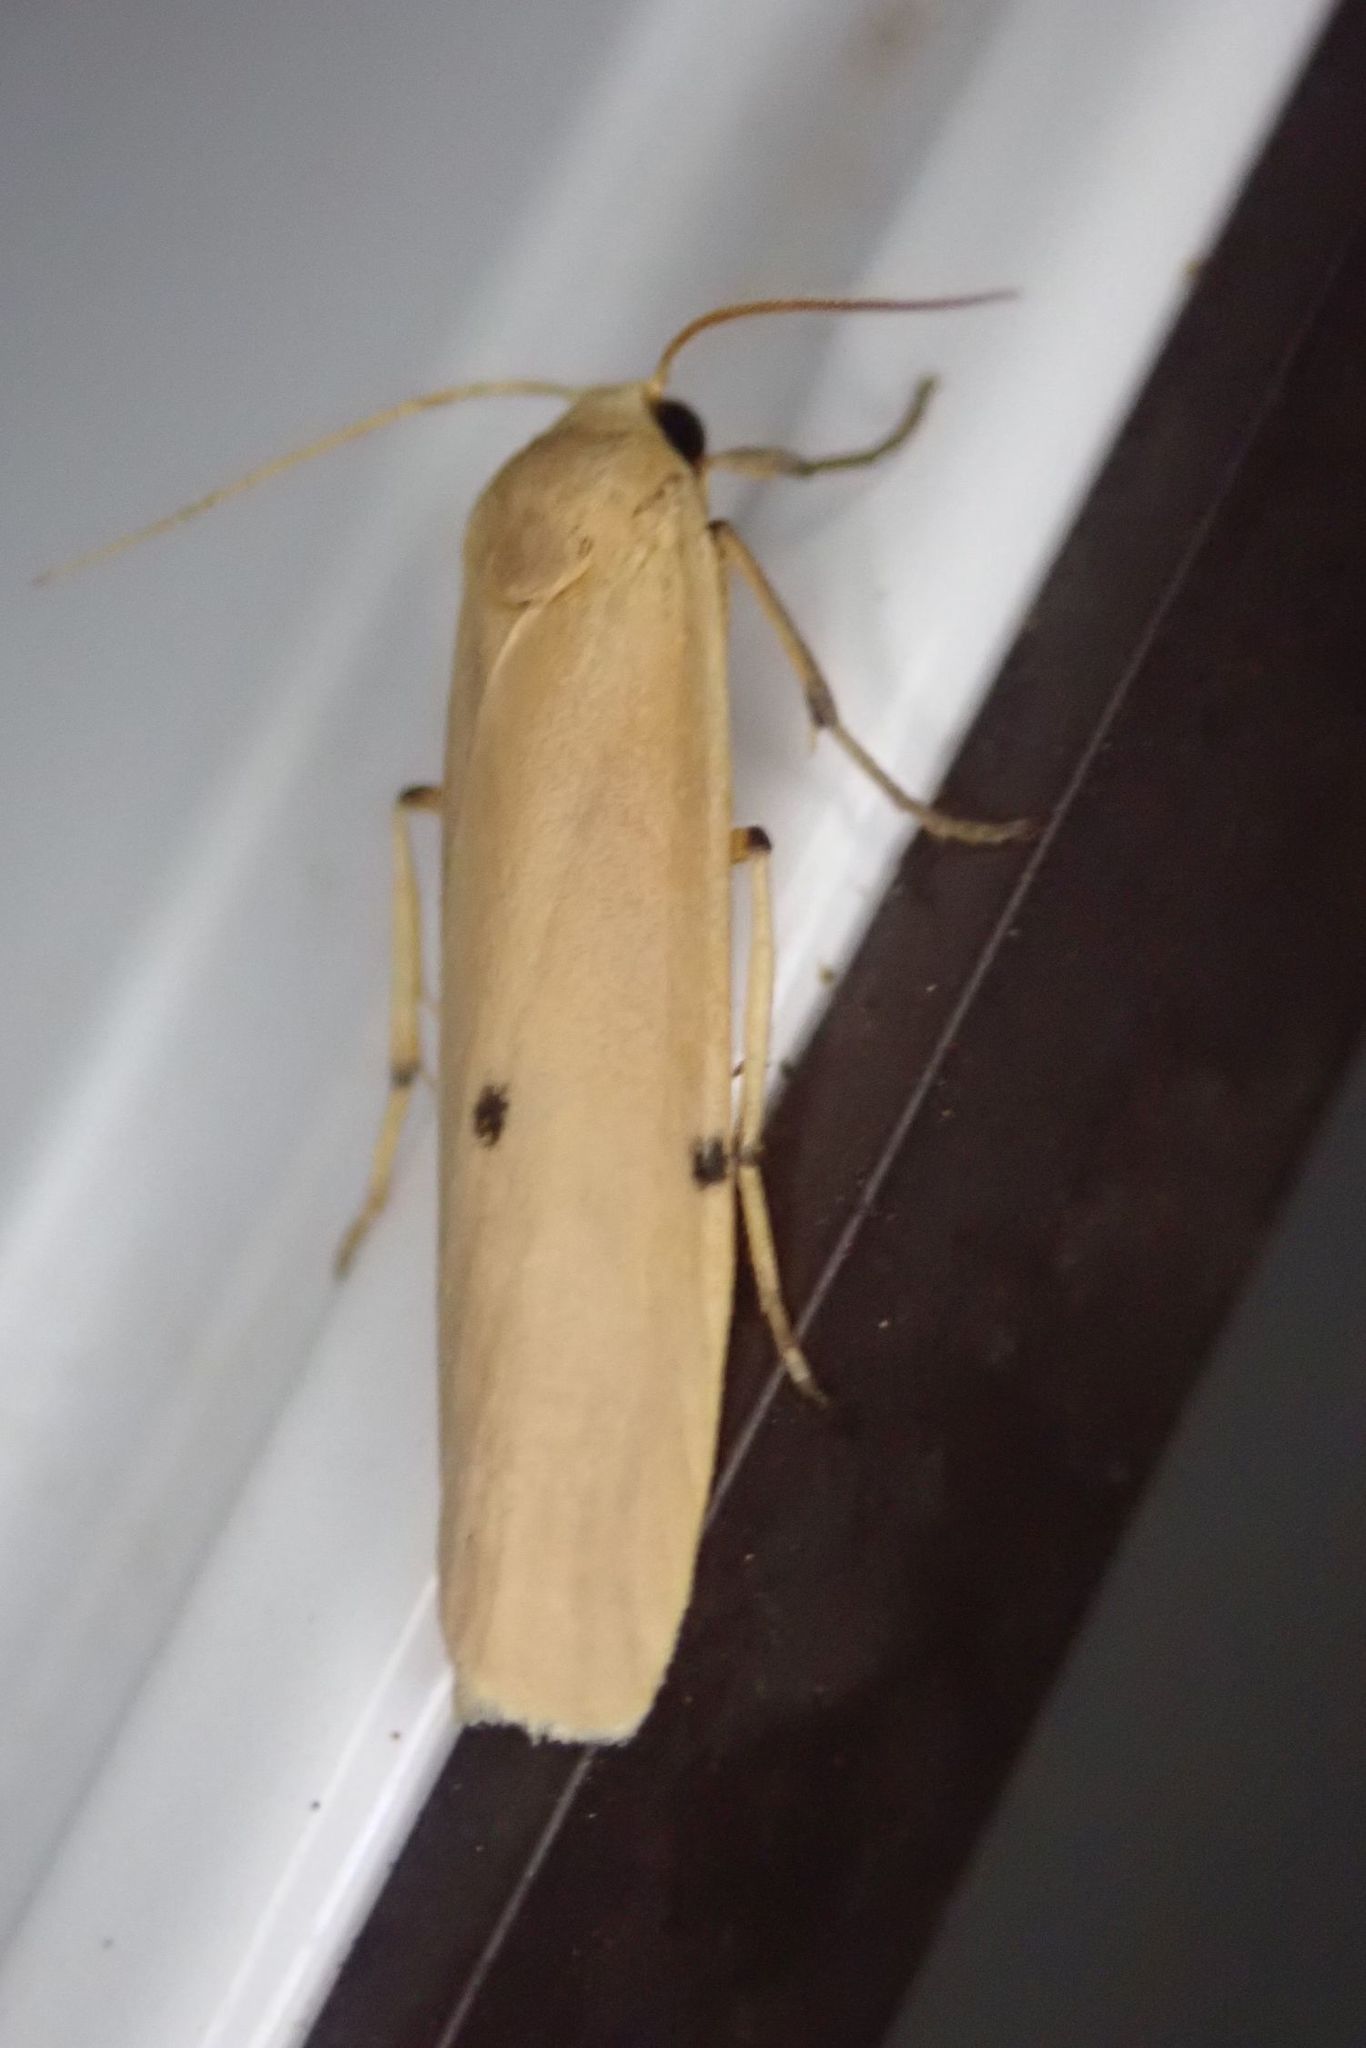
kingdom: Animalia
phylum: Arthropoda
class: Insecta
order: Lepidoptera
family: Erebidae
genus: Zobida
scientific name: Zobida similipuncta
